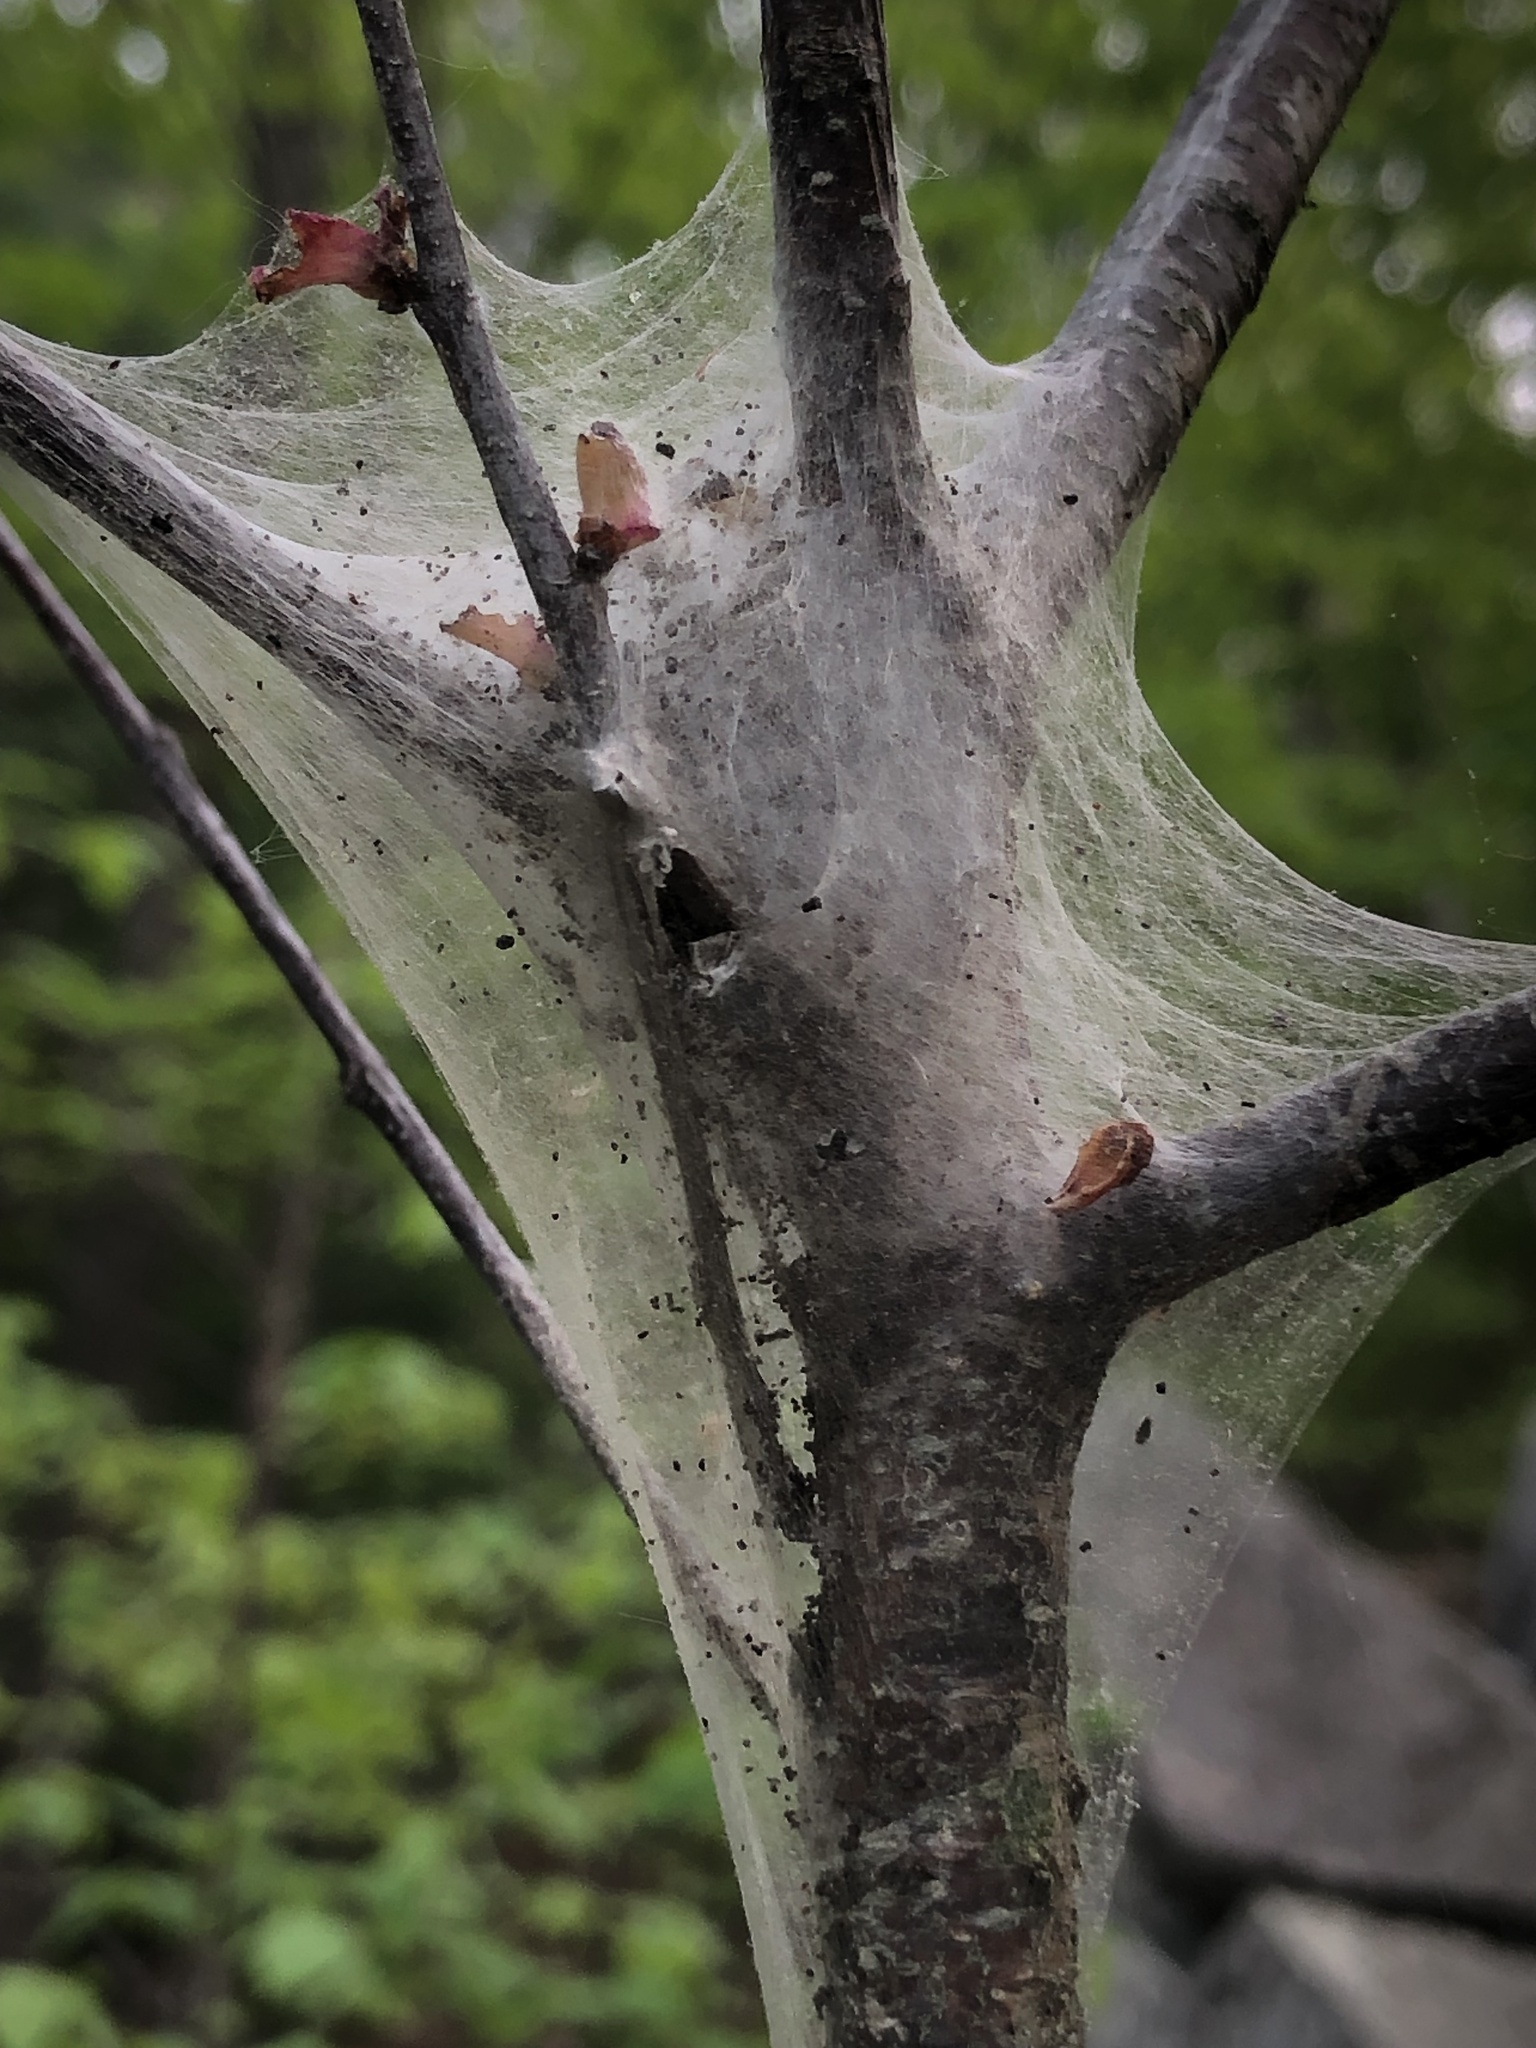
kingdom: Animalia
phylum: Arthropoda
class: Insecta
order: Lepidoptera
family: Lasiocampidae
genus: Malacosoma
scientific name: Malacosoma americana
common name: Eastern tent caterpillar moth
